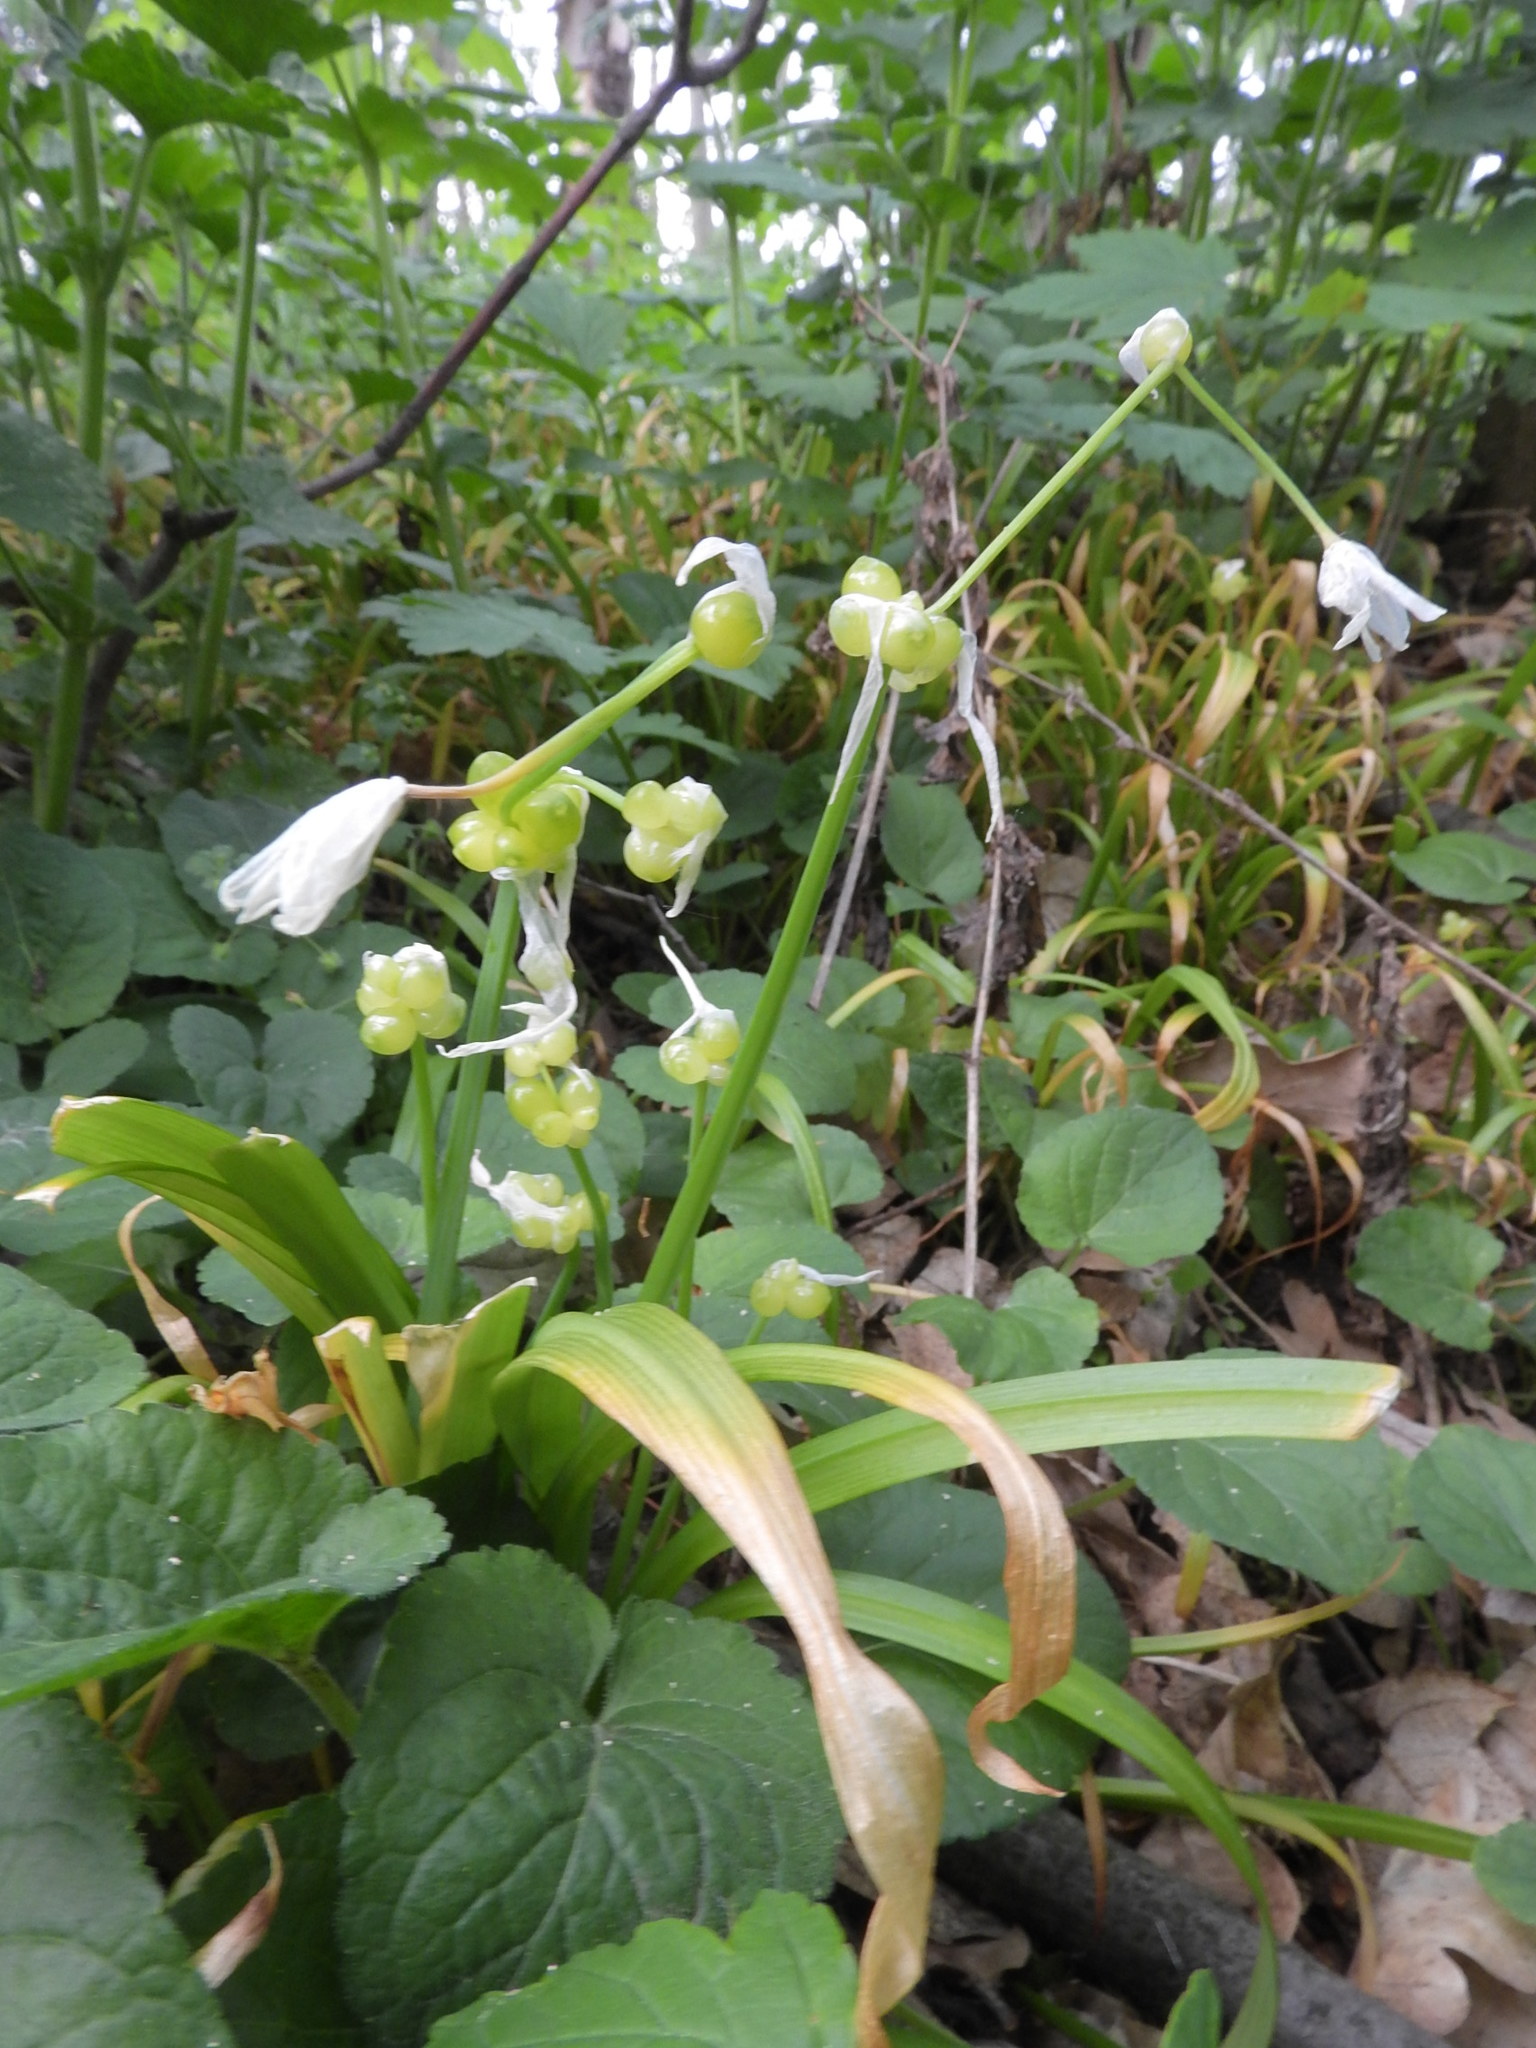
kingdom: Plantae
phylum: Tracheophyta
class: Liliopsida
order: Asparagales
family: Amaryllidaceae
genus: Allium
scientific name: Allium paradoxum
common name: Few-flowered garlic
